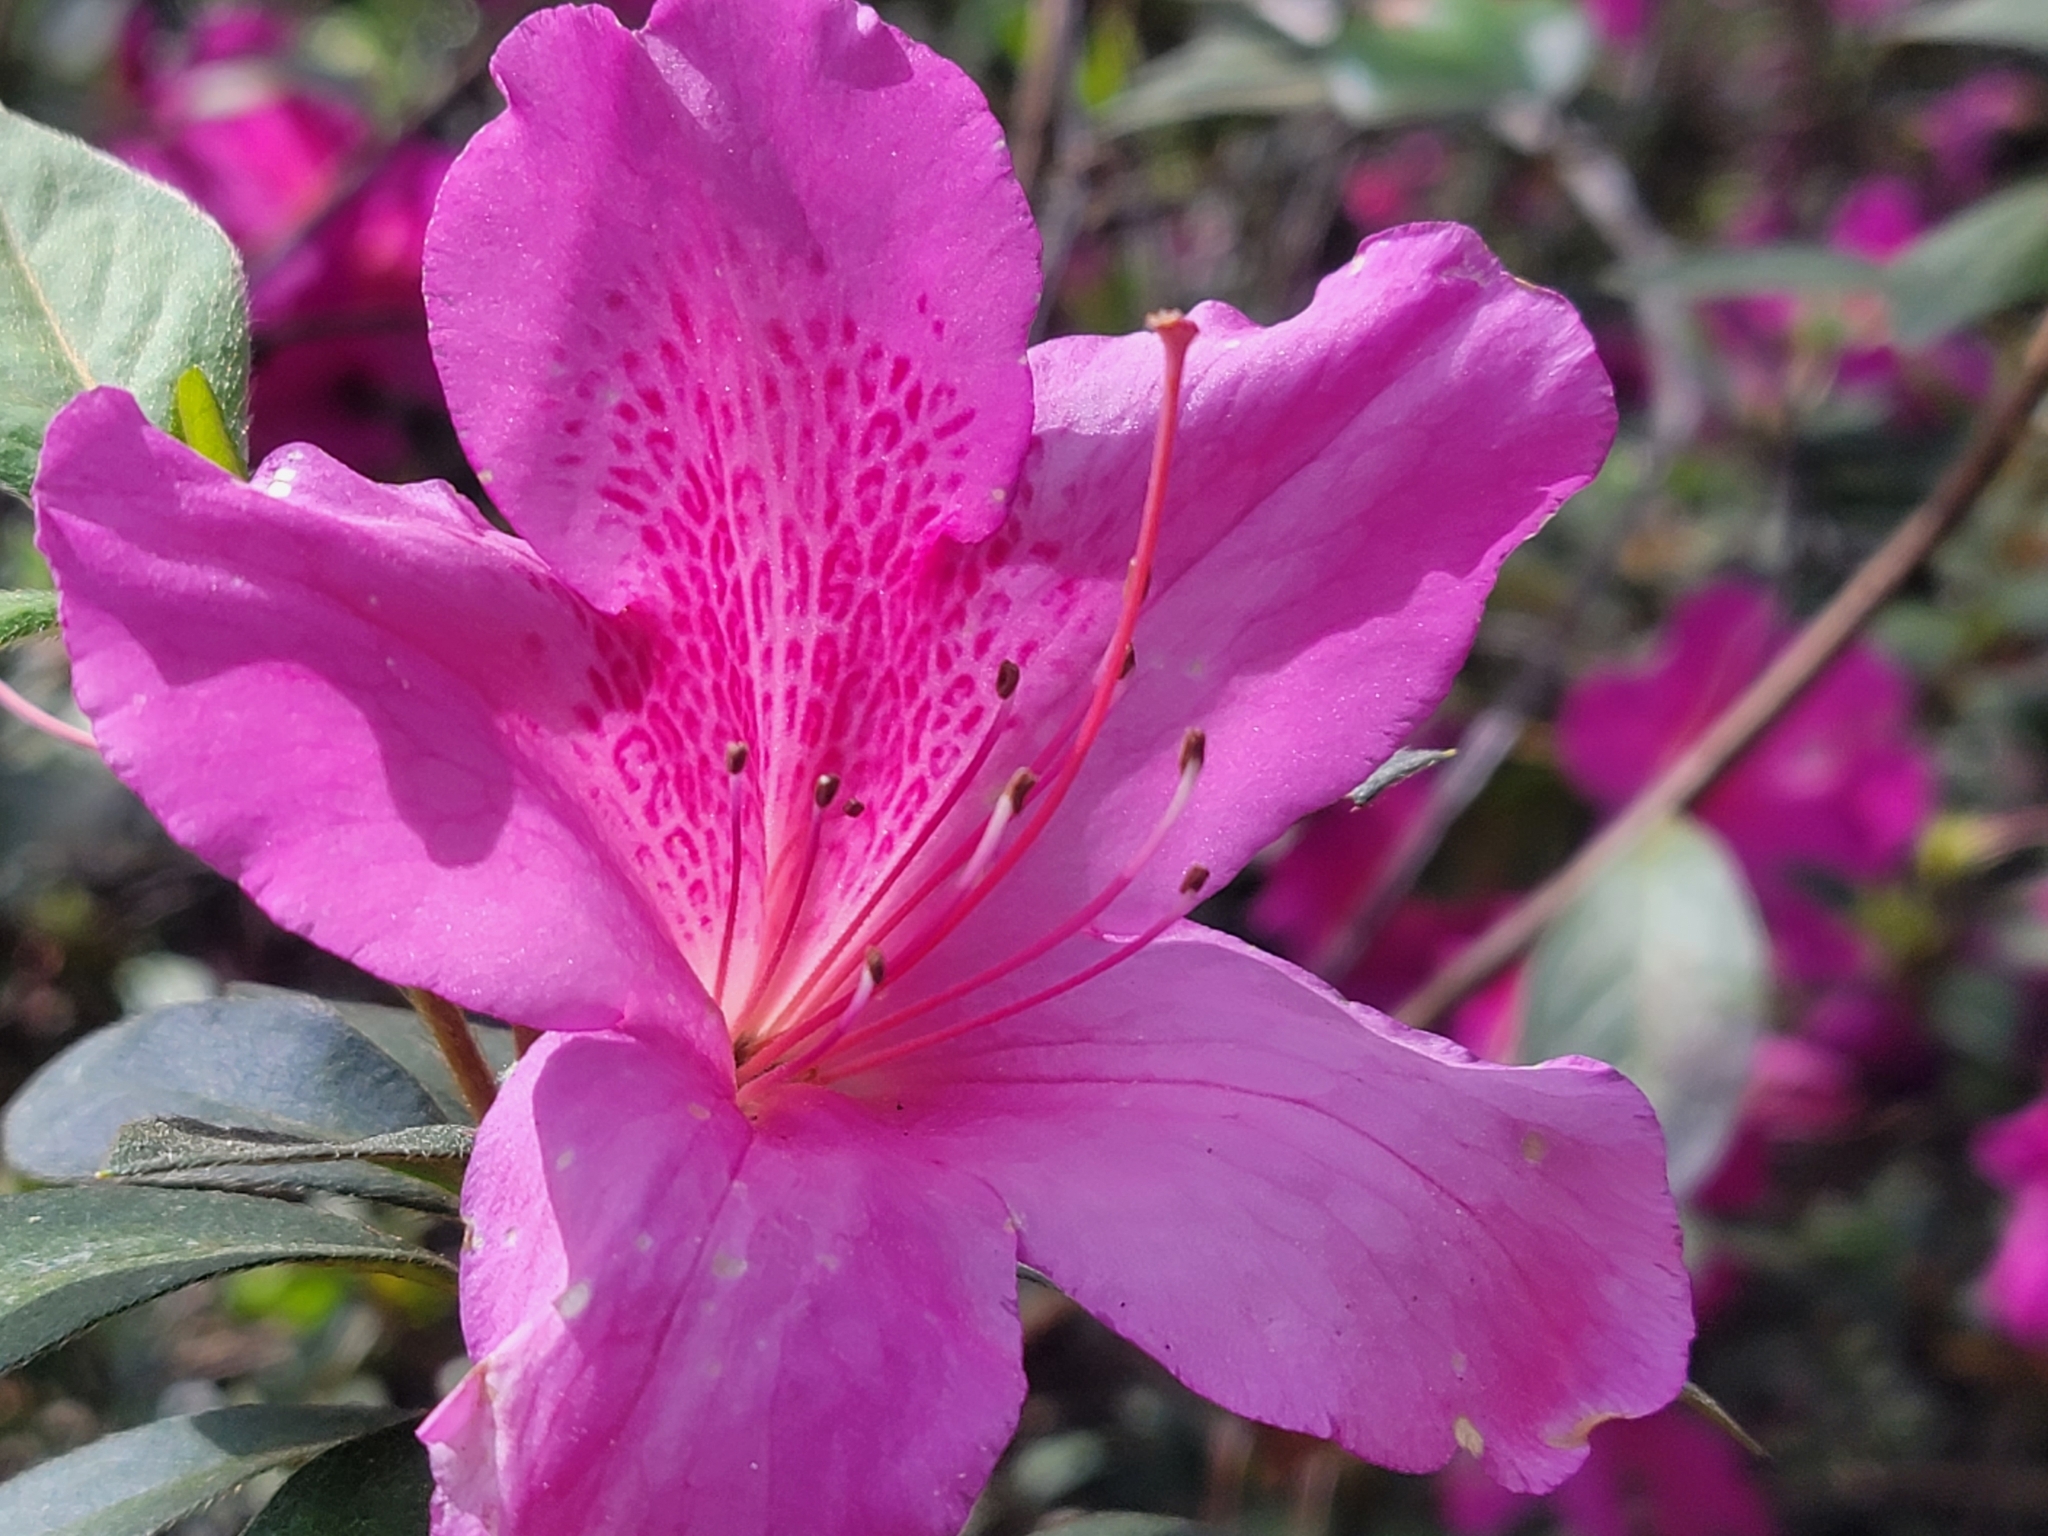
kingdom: Plantae
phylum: Tracheophyta
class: Magnoliopsida
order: Ericales
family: Ericaceae
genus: Rhododendron
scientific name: Rhododendron indicum
